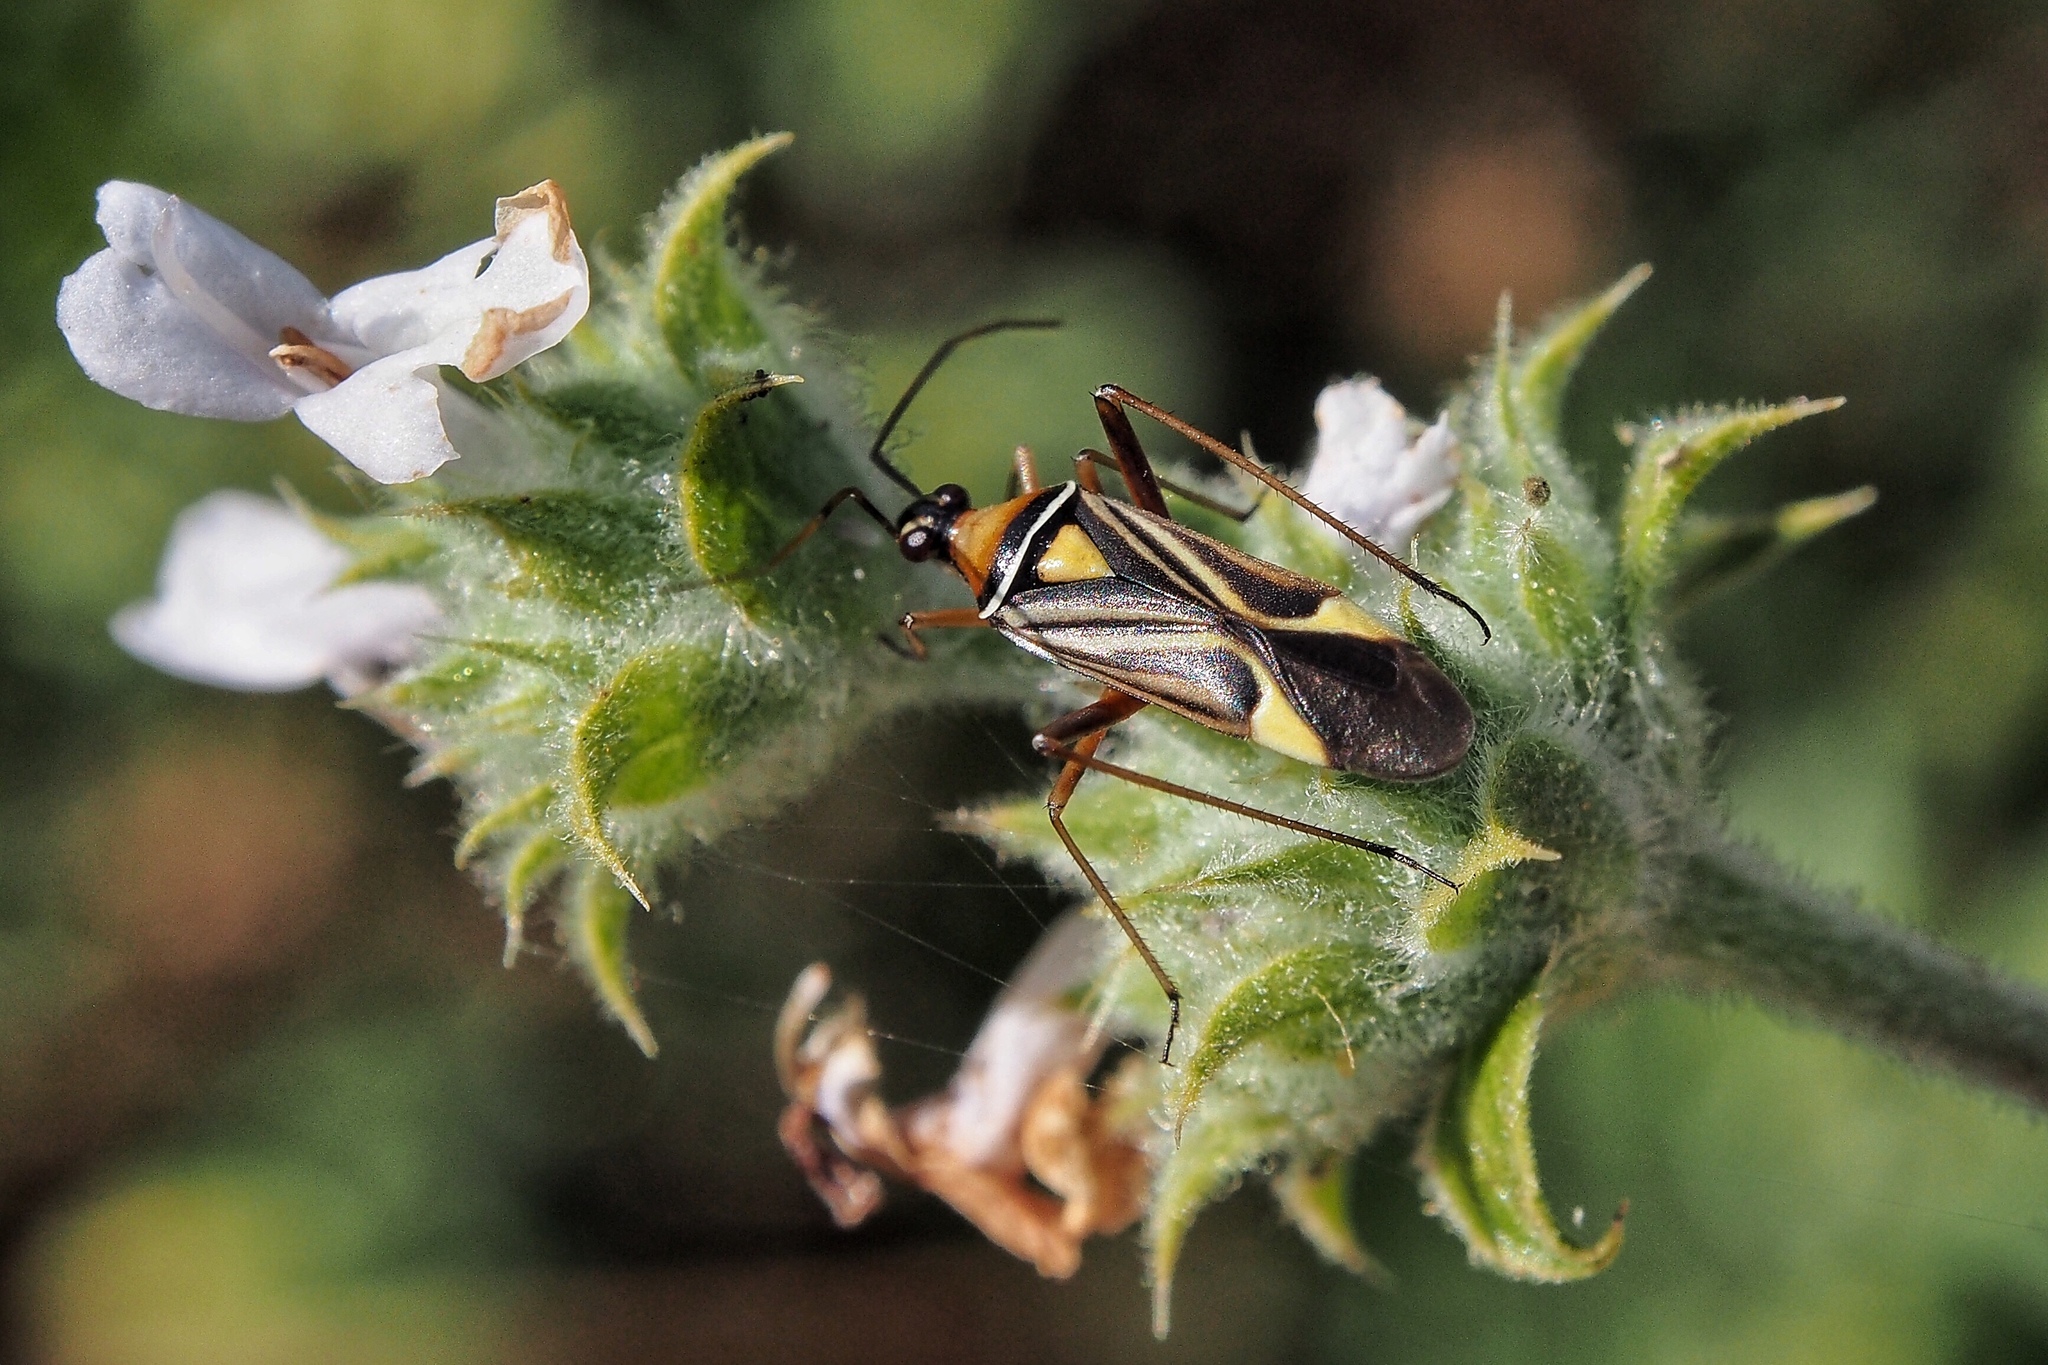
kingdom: Animalia
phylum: Arthropoda
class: Insecta
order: Hemiptera
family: Miridae
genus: Closterocoris
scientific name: Closterocoris amoenus
